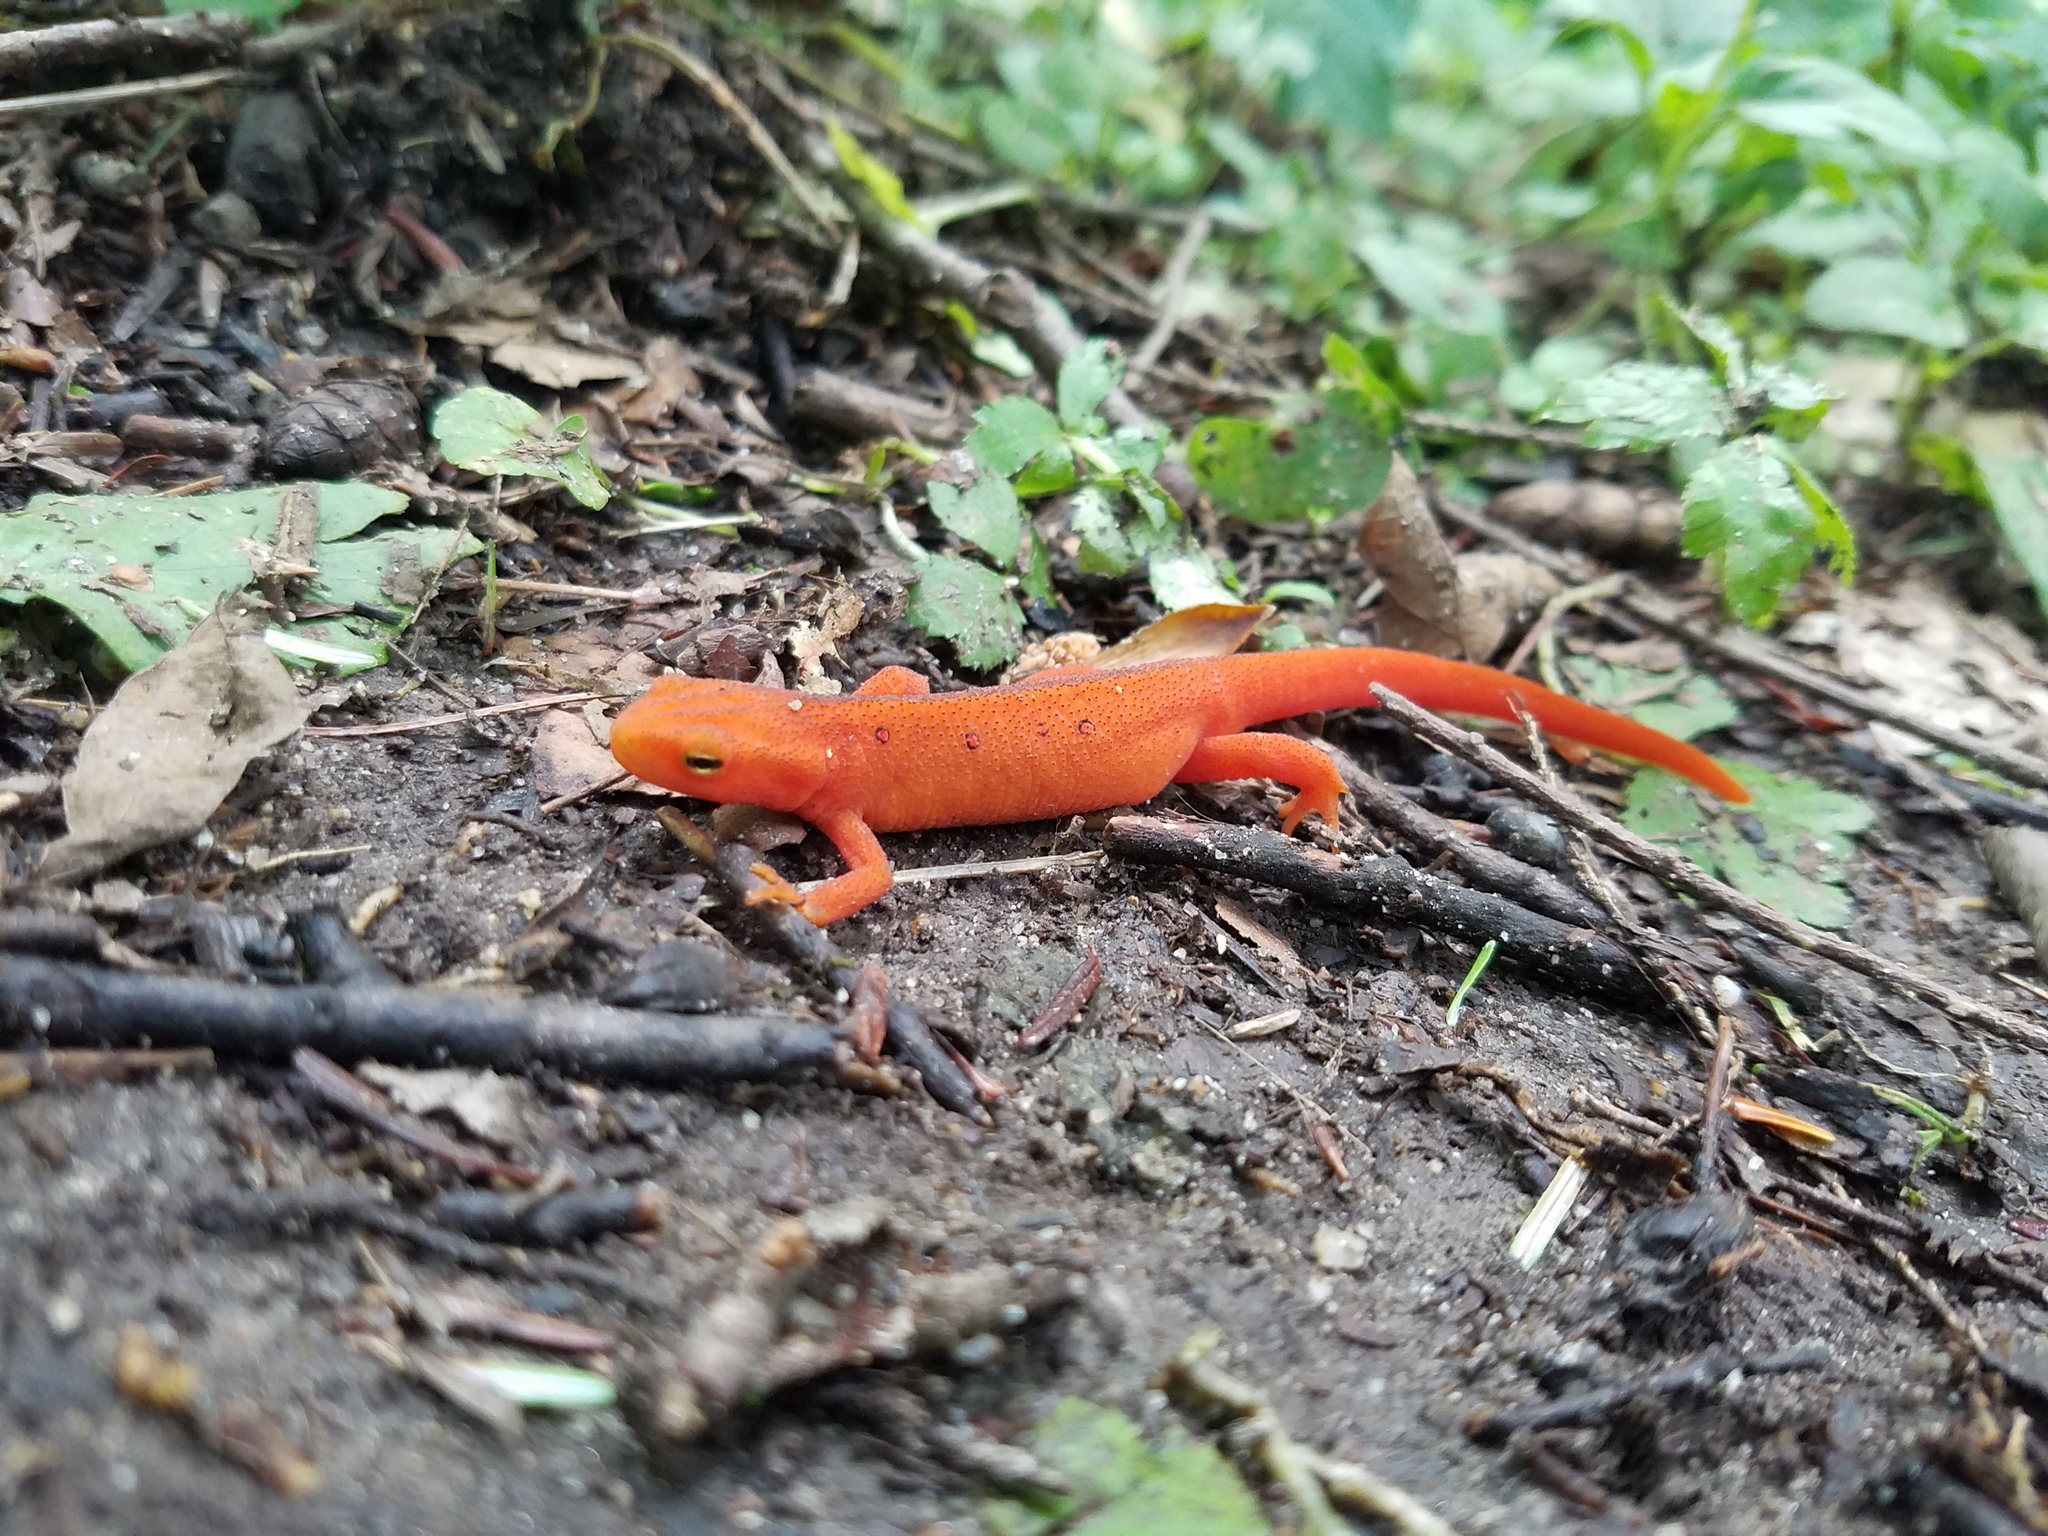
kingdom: Animalia
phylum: Chordata
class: Amphibia
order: Caudata
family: Salamandridae
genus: Notophthalmus
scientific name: Notophthalmus viridescens
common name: Eastern newt
